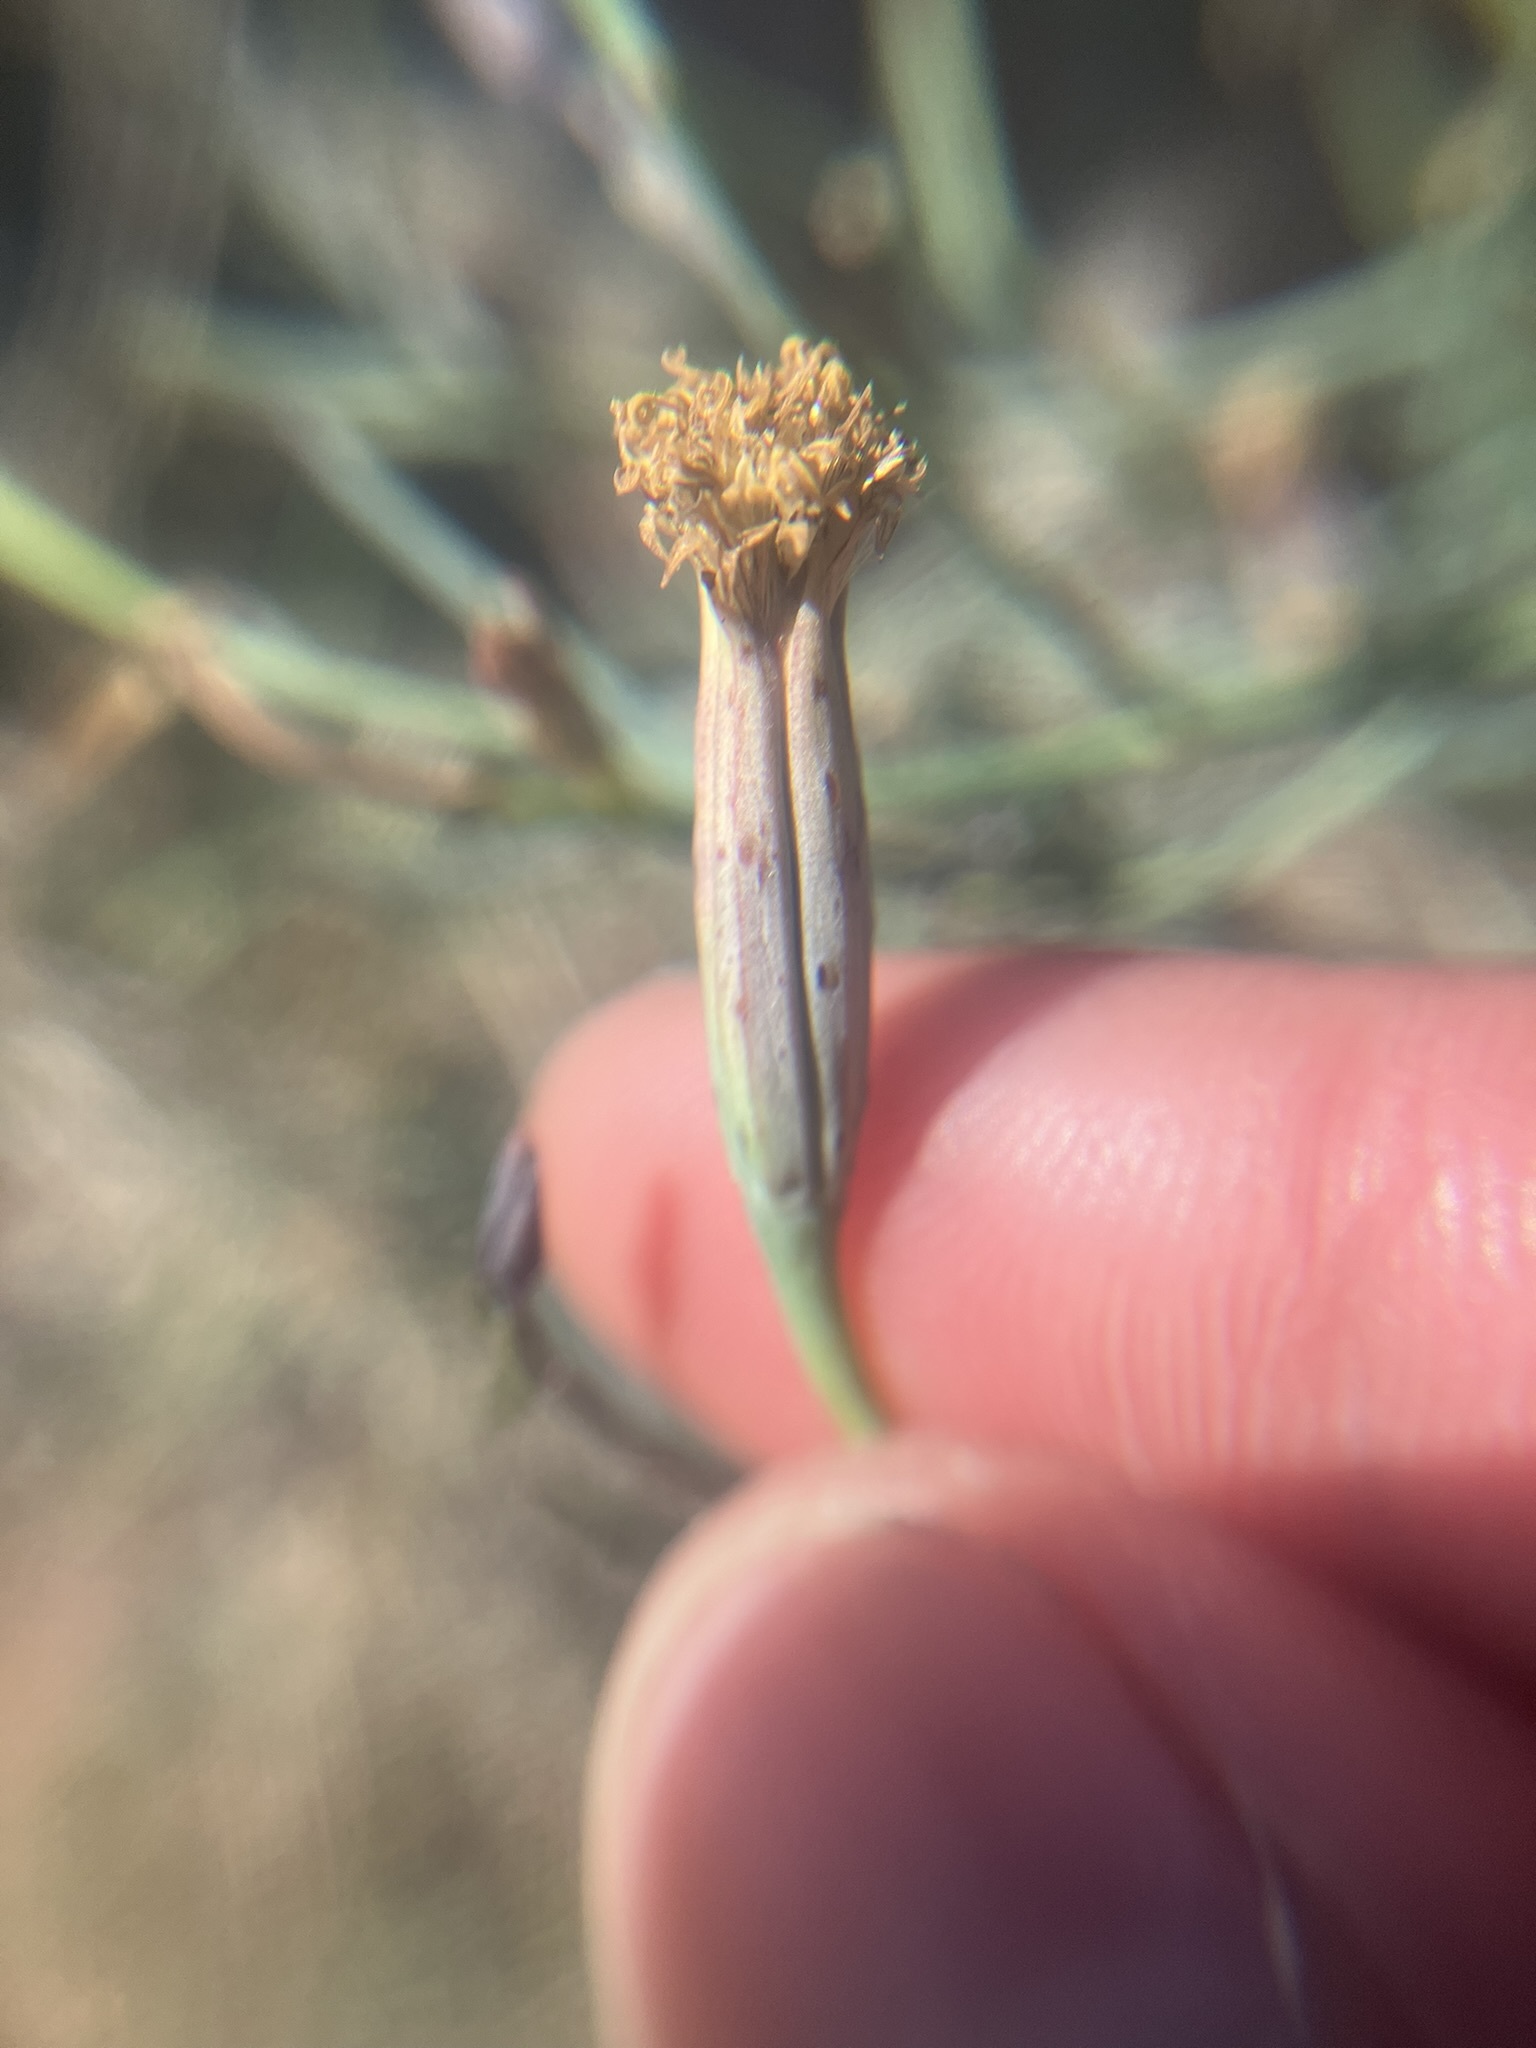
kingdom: Plantae
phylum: Tracheophyta
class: Magnoliopsida
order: Asterales
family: Asteraceae
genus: Porophyllum
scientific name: Porophyllum gracile
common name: Odora
